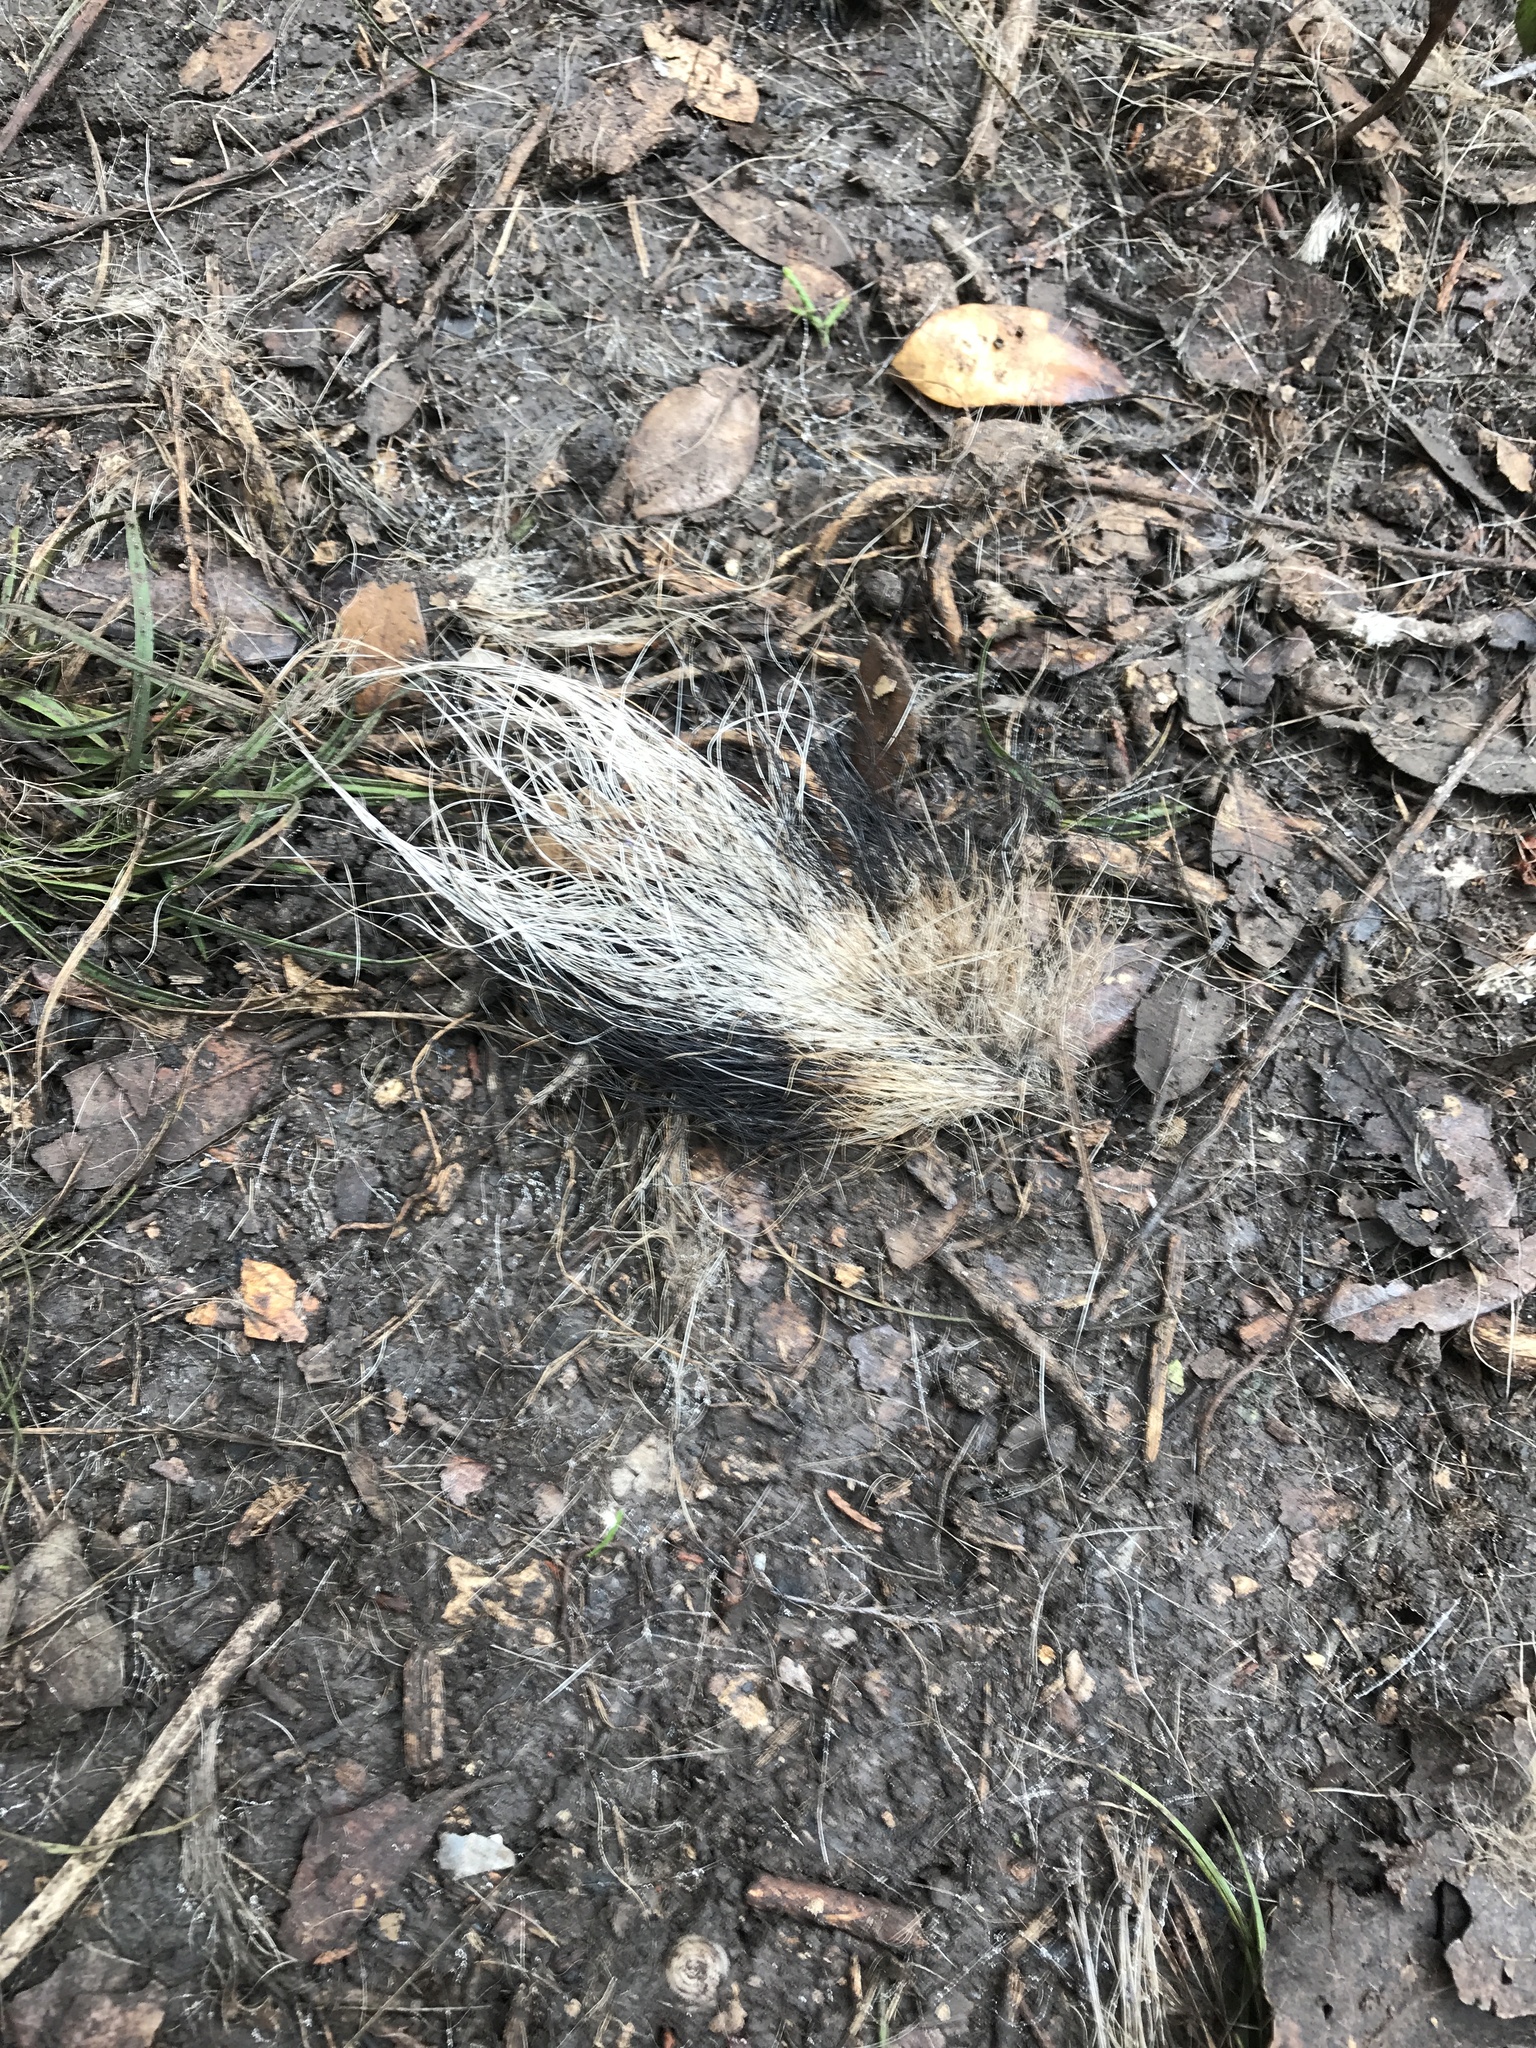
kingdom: Animalia
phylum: Chordata
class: Mammalia
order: Carnivora
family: Canidae
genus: Canis
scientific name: Canis latrans
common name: Coyote
